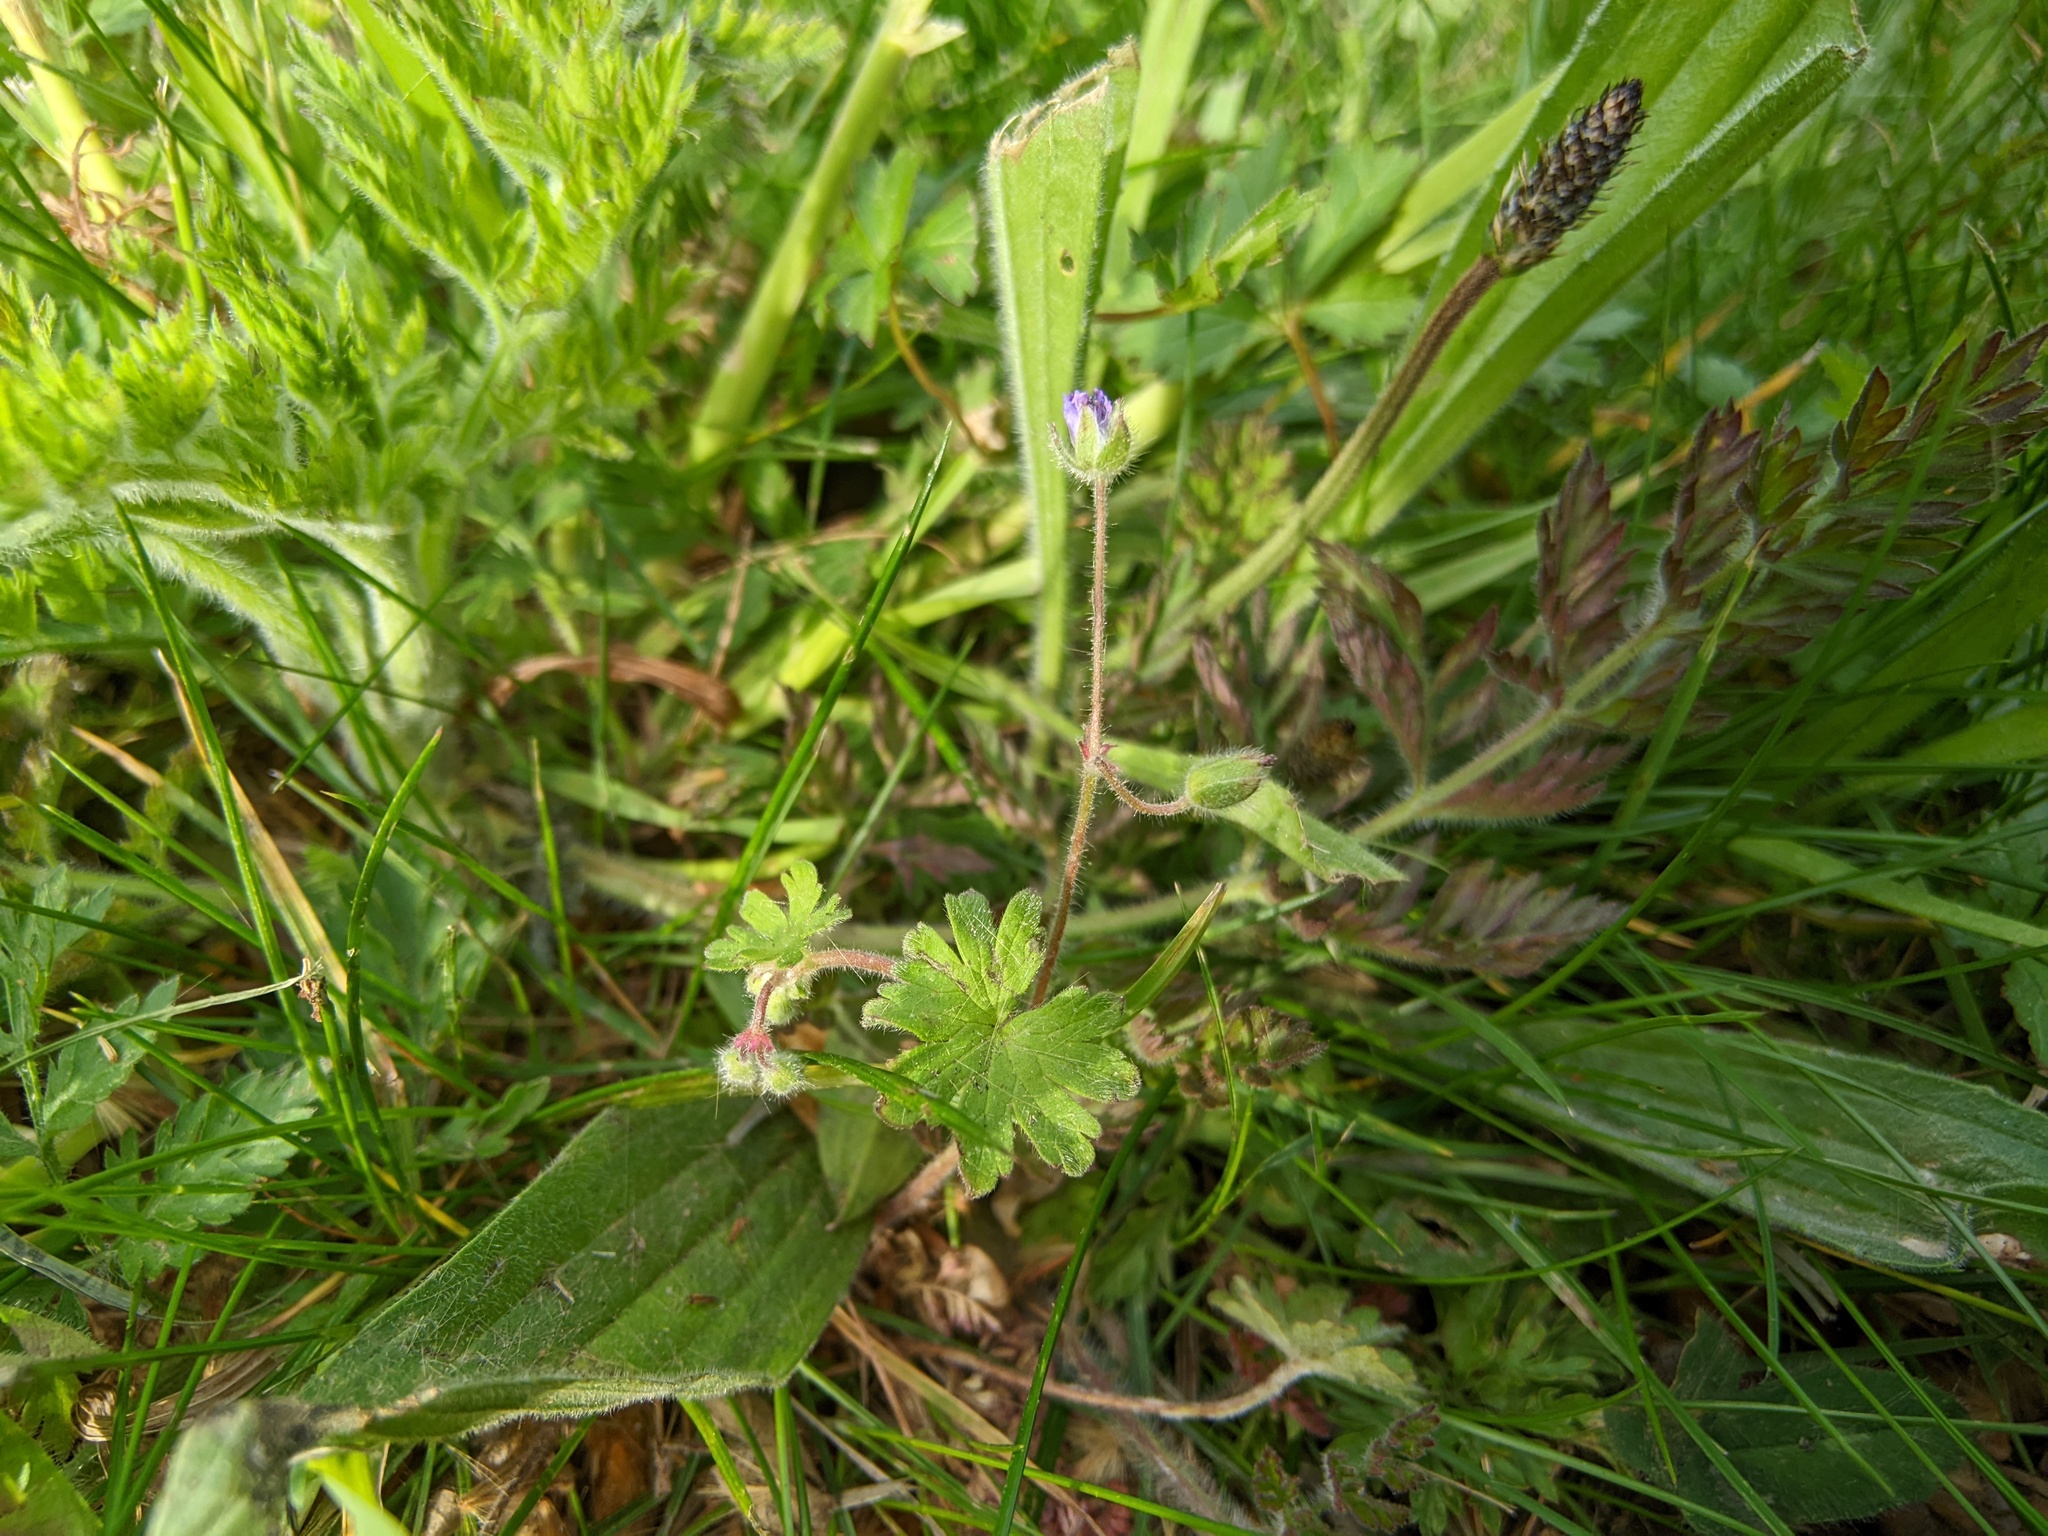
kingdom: Plantae
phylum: Tracheophyta
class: Magnoliopsida
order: Lamiales
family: Plantaginaceae
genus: Plantago
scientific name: Plantago lanceolata
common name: Ribwort plantain
